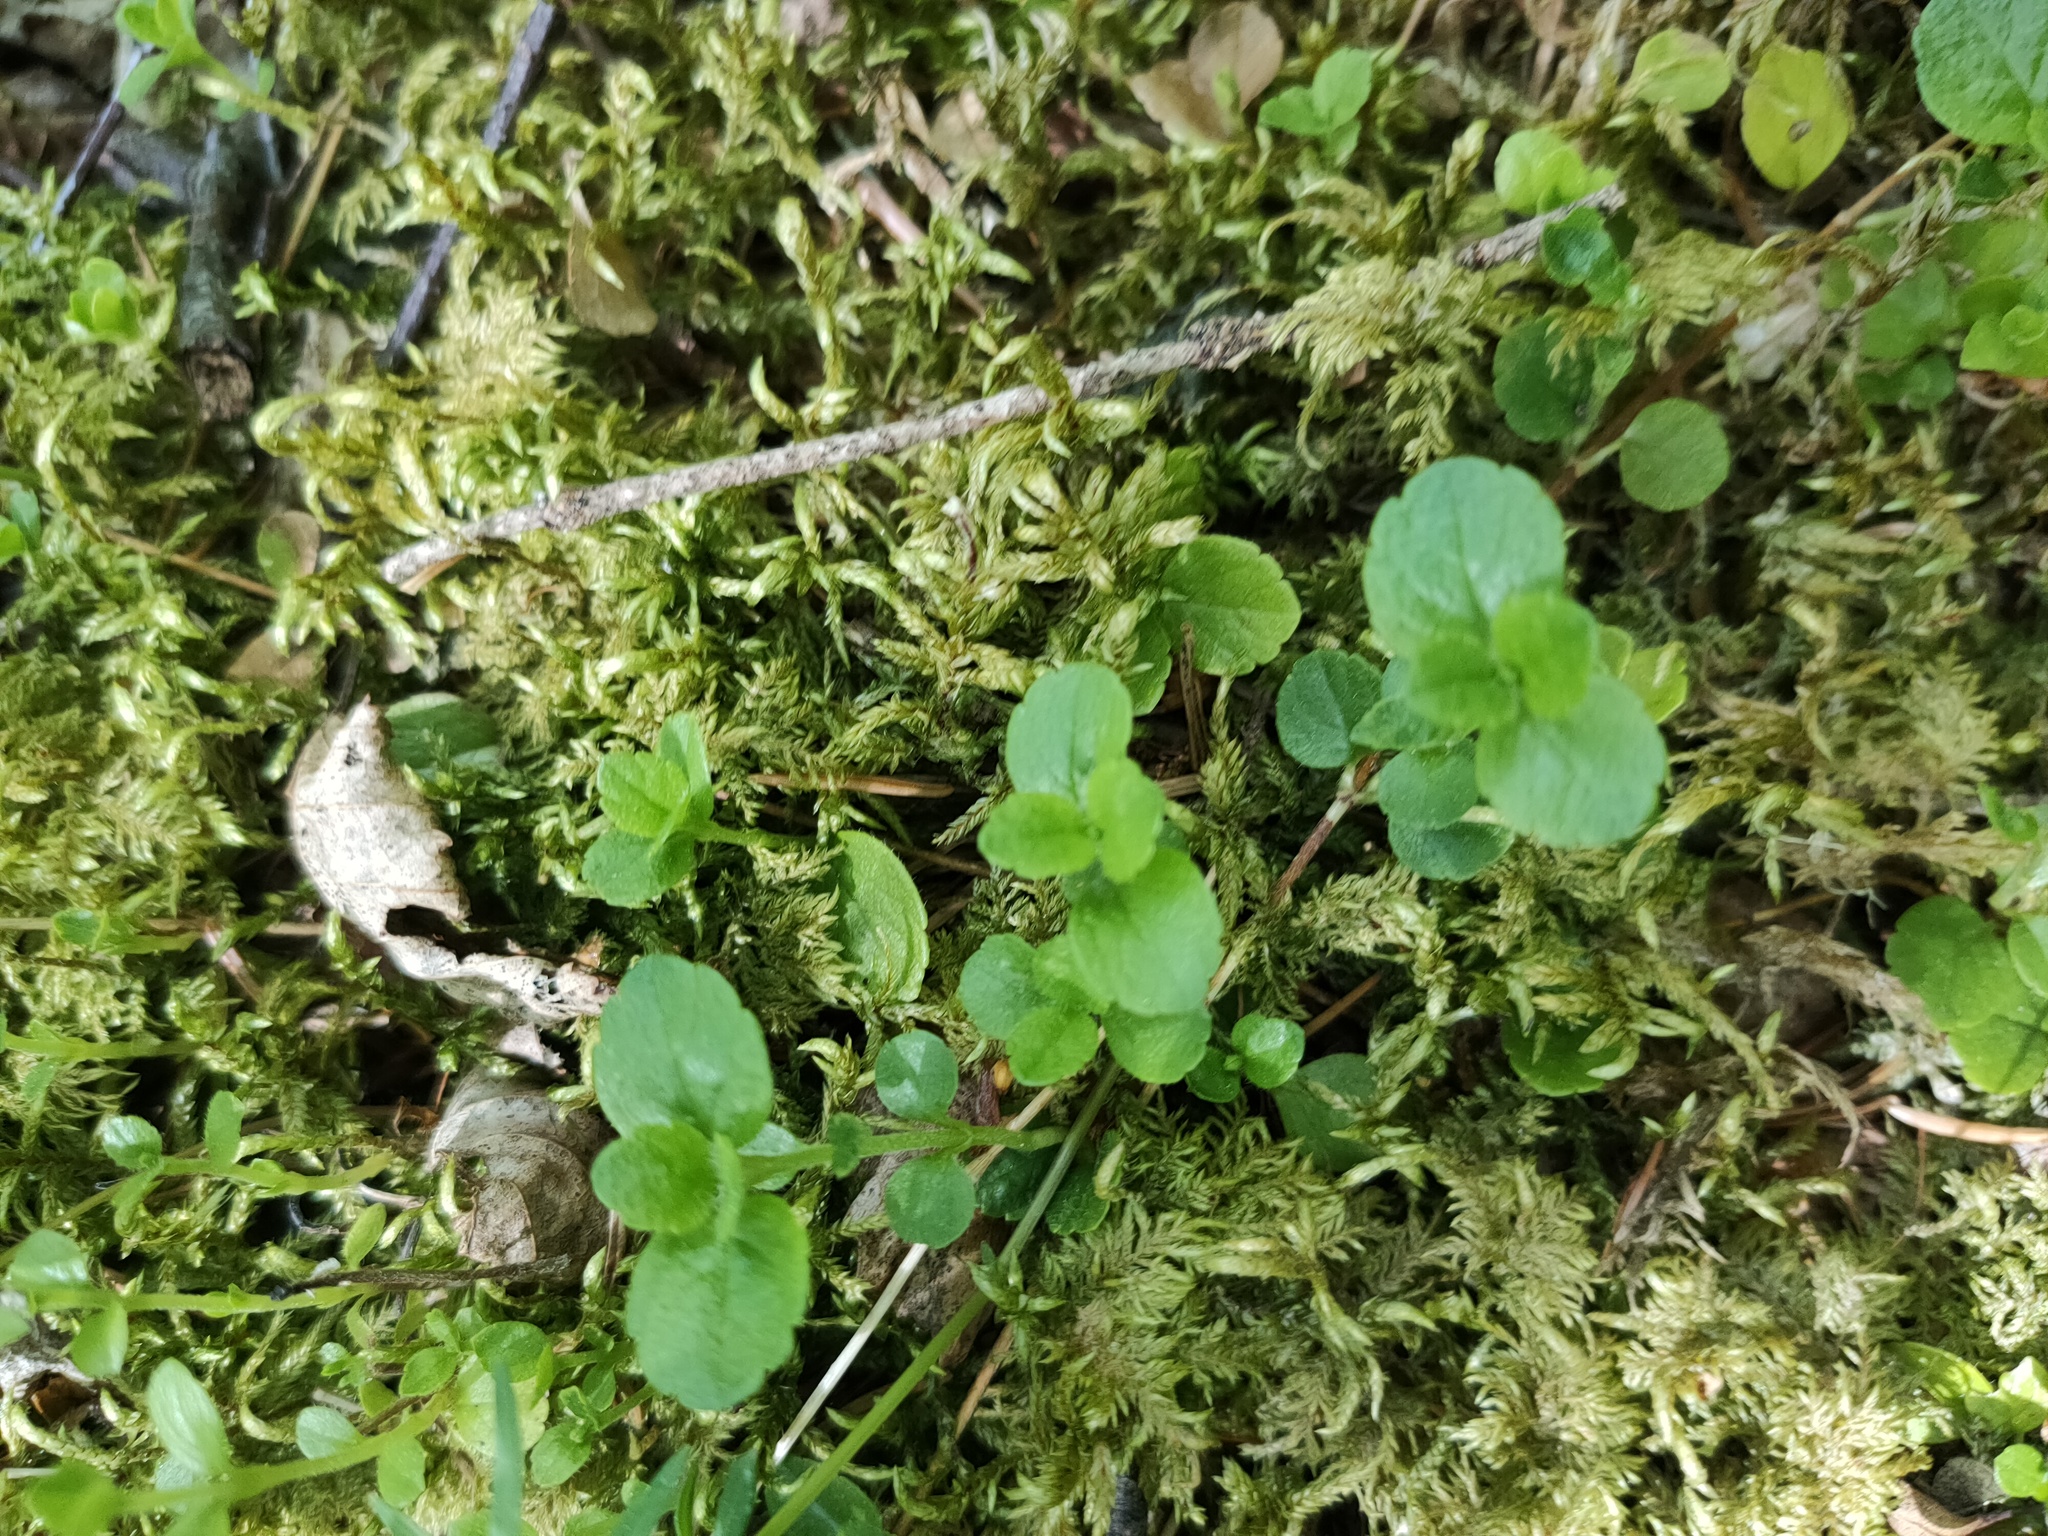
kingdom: Plantae
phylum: Tracheophyta
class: Magnoliopsida
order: Dipsacales
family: Caprifoliaceae
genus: Linnaea
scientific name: Linnaea borealis
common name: Twinflower
